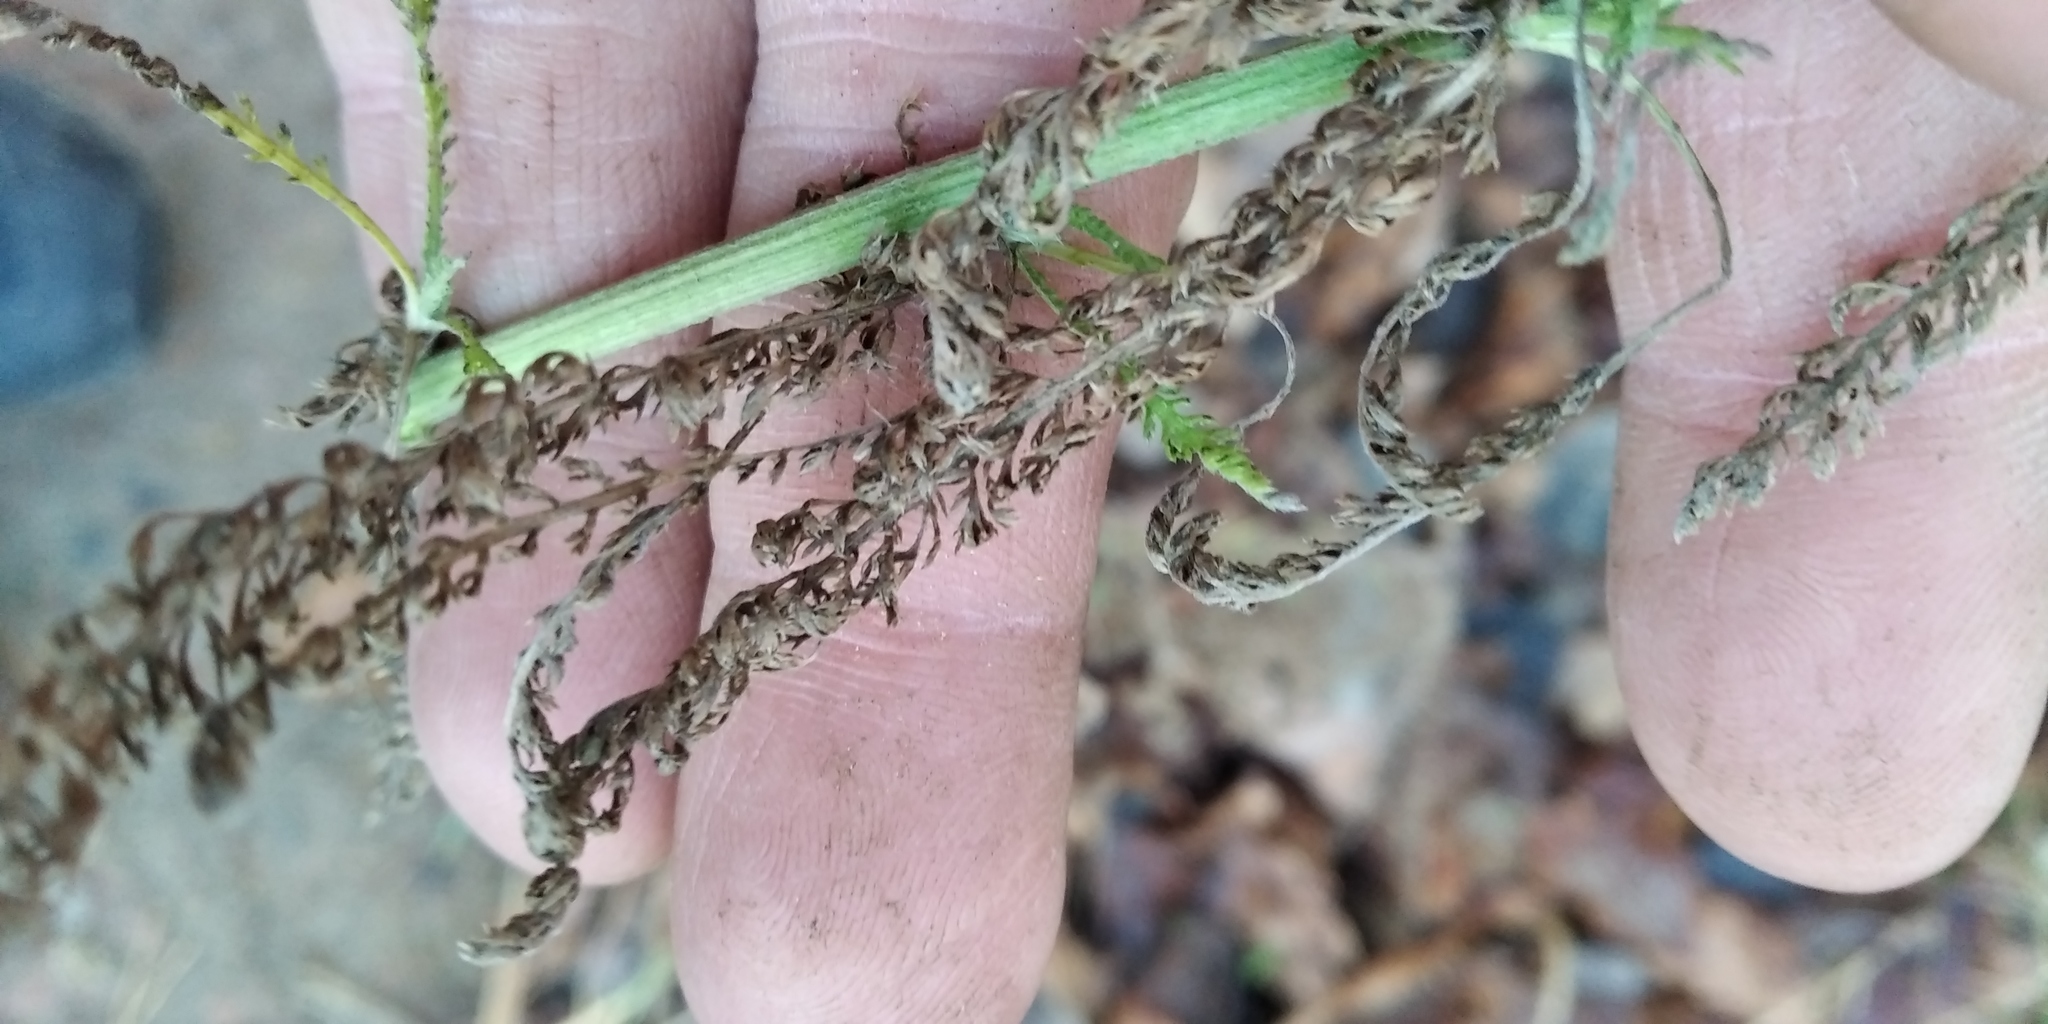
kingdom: Plantae
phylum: Tracheophyta
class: Magnoliopsida
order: Asterales
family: Asteraceae
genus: Achillea
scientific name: Achillea millefolium
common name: Yarrow
